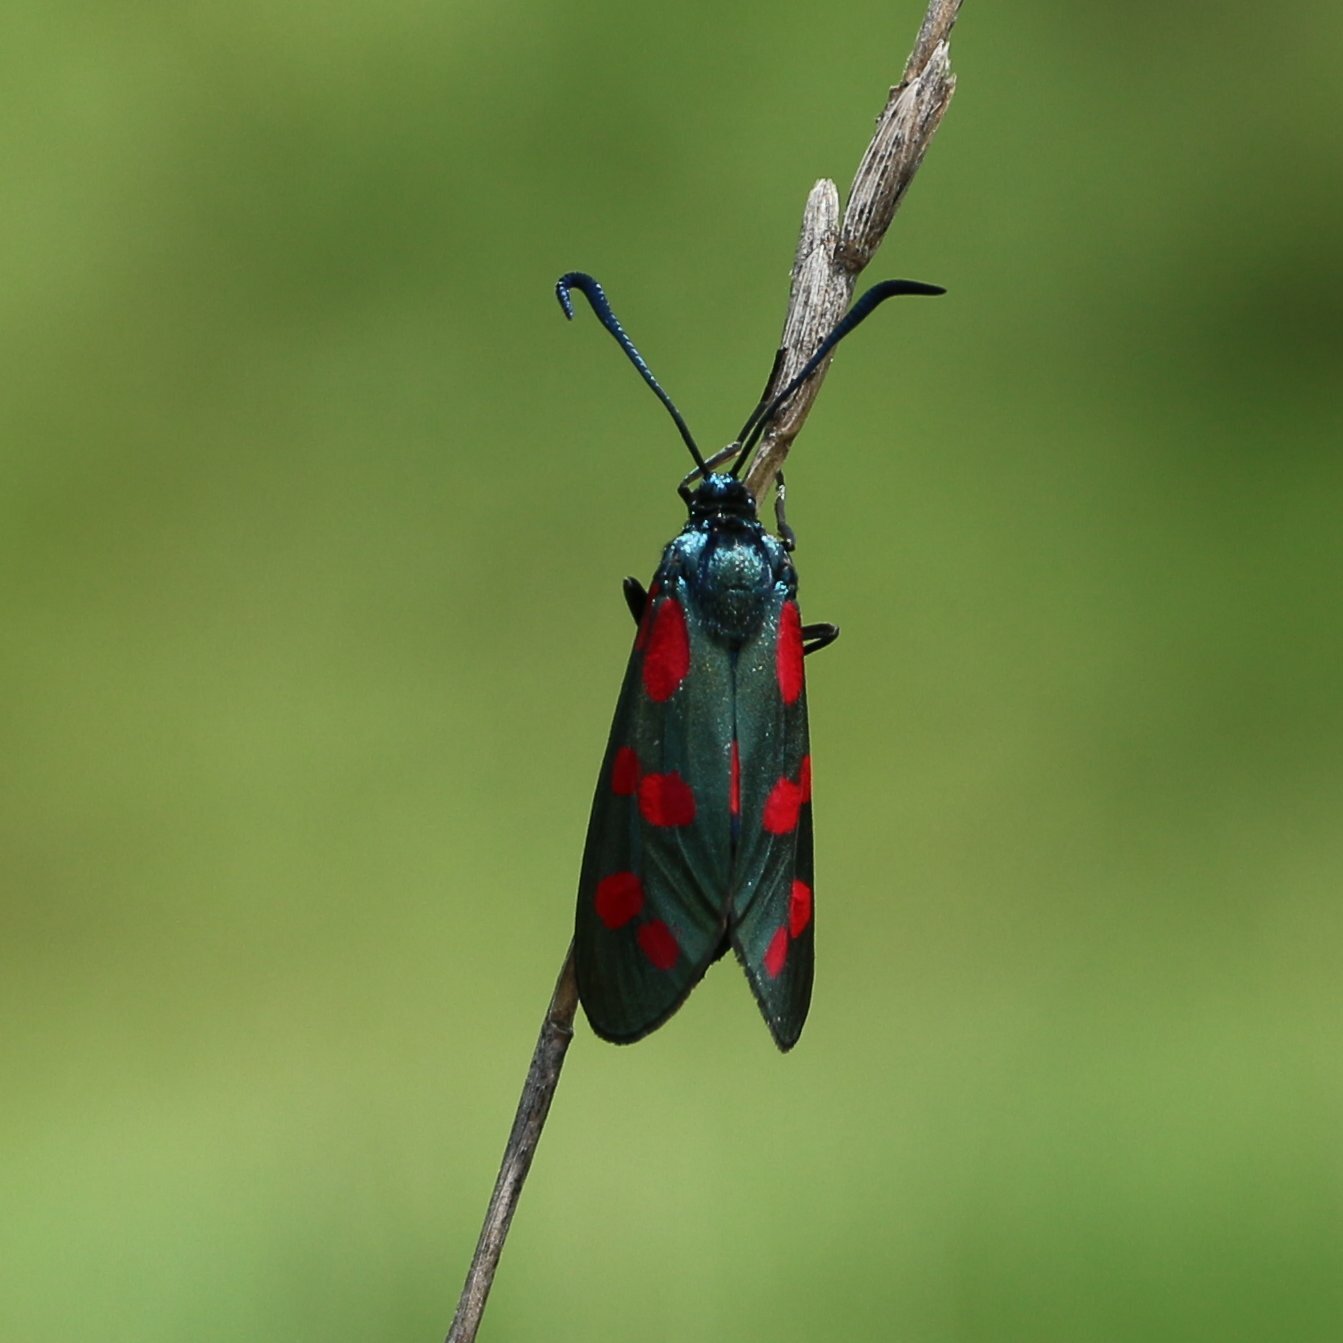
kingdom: Animalia
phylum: Arthropoda
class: Insecta
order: Lepidoptera
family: Zygaenidae
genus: Zygaena
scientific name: Zygaena filipendulae
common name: Six-spot burnet
